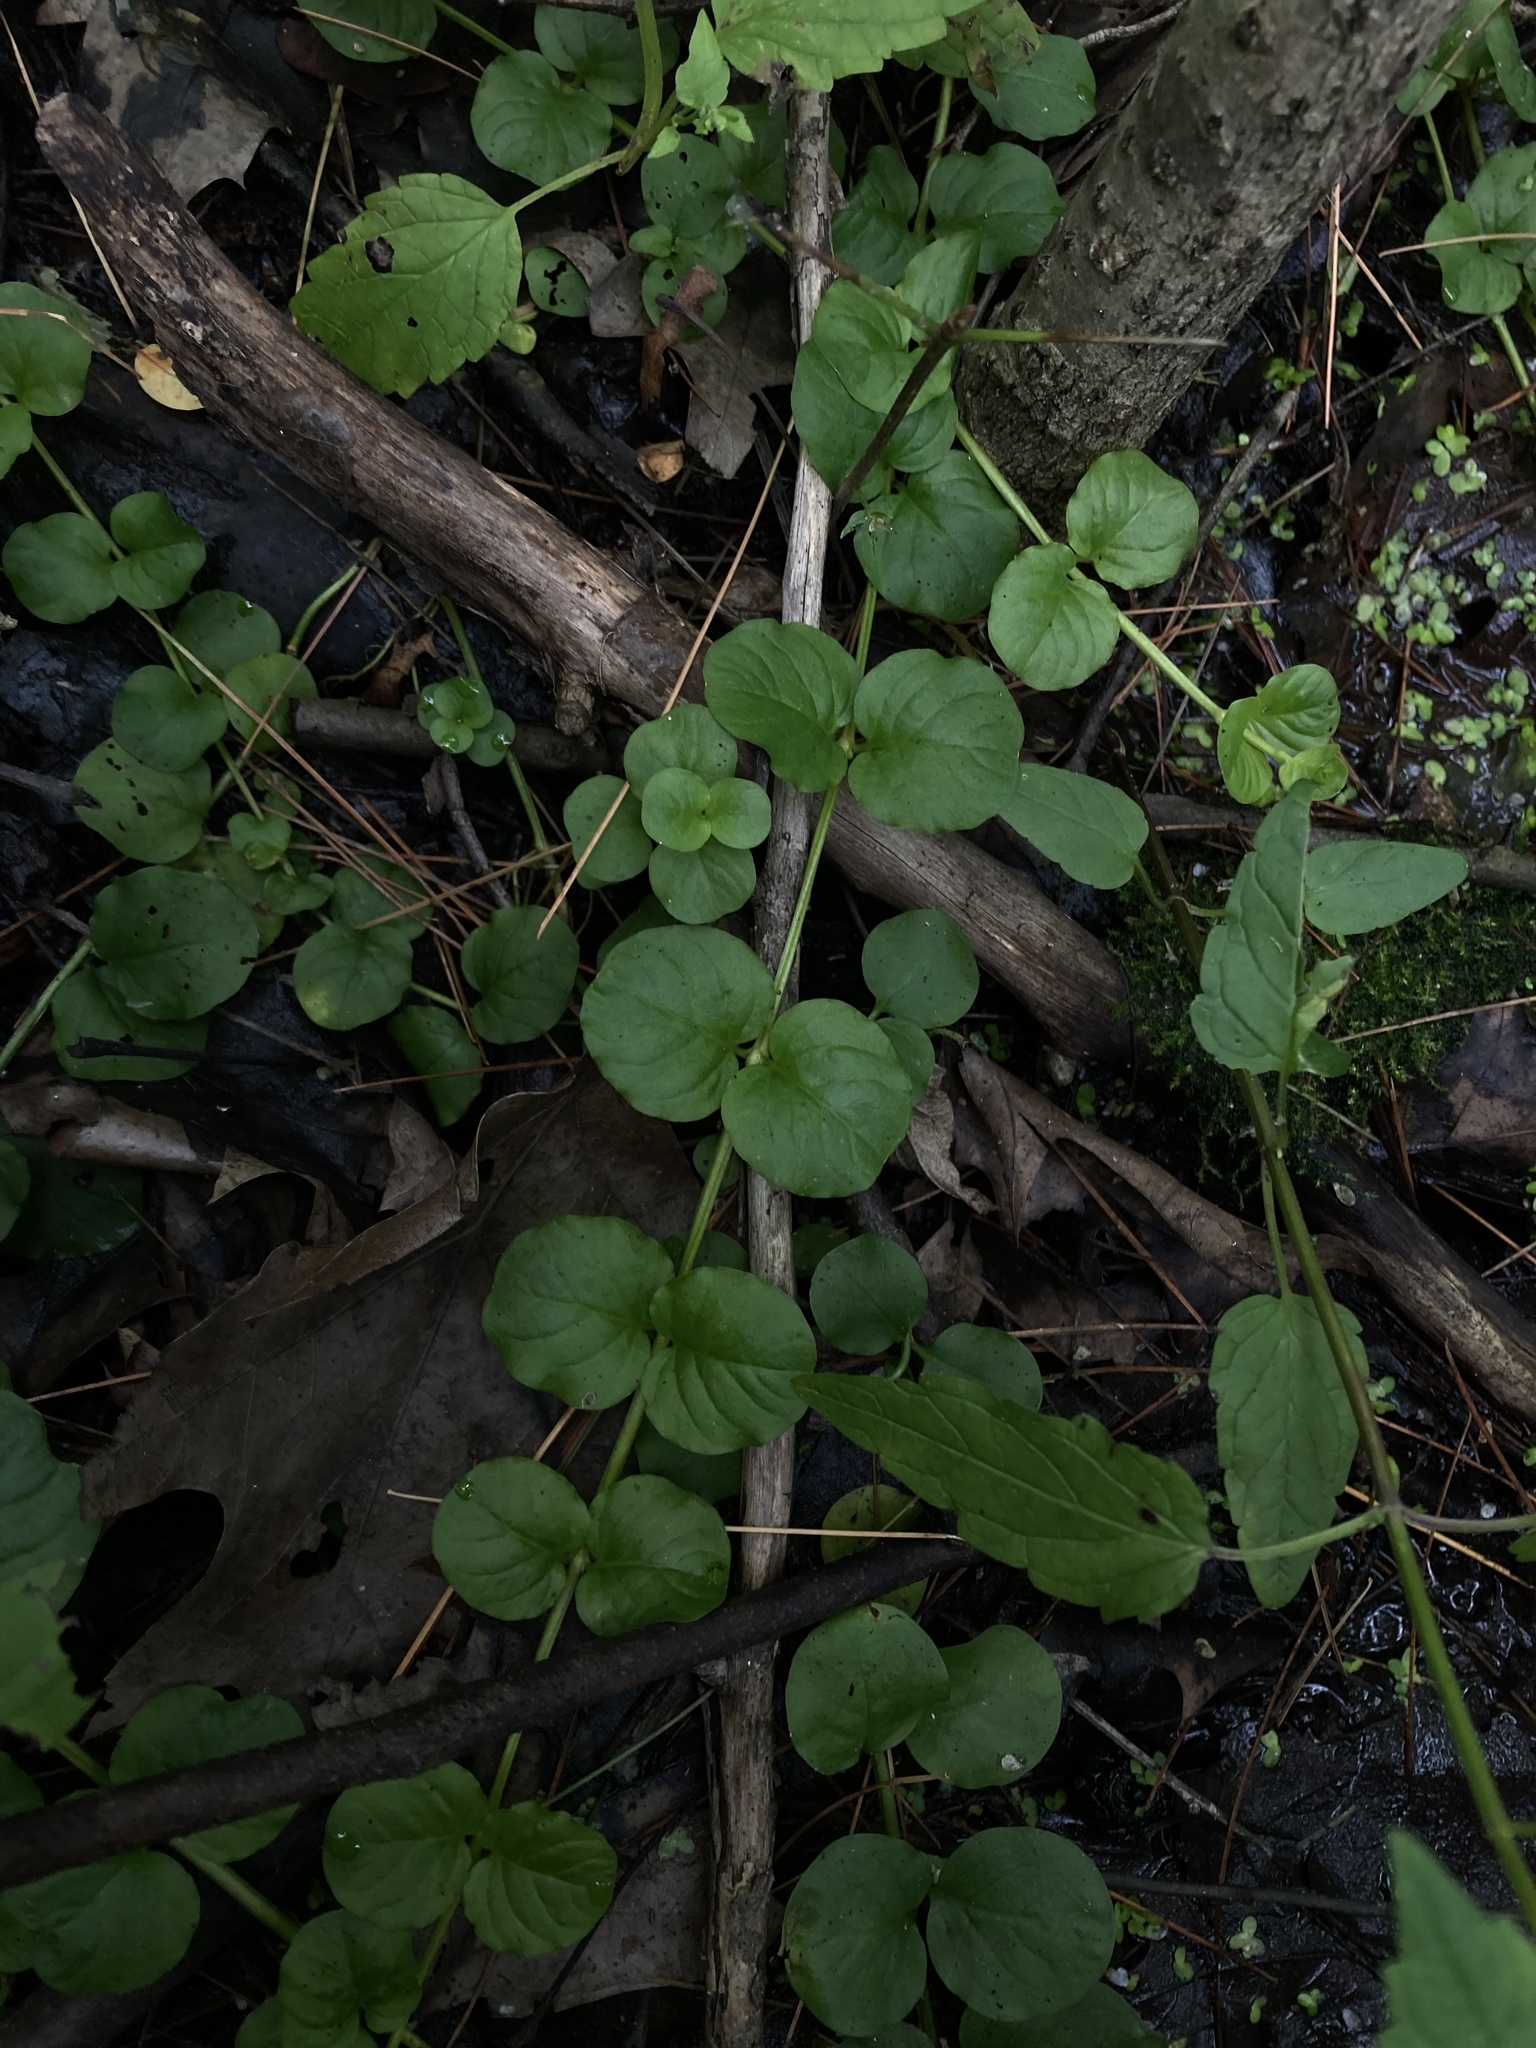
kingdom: Plantae
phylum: Tracheophyta
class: Magnoliopsida
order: Ericales
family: Primulaceae
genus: Lysimachia
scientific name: Lysimachia nummularia
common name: Moneywort
